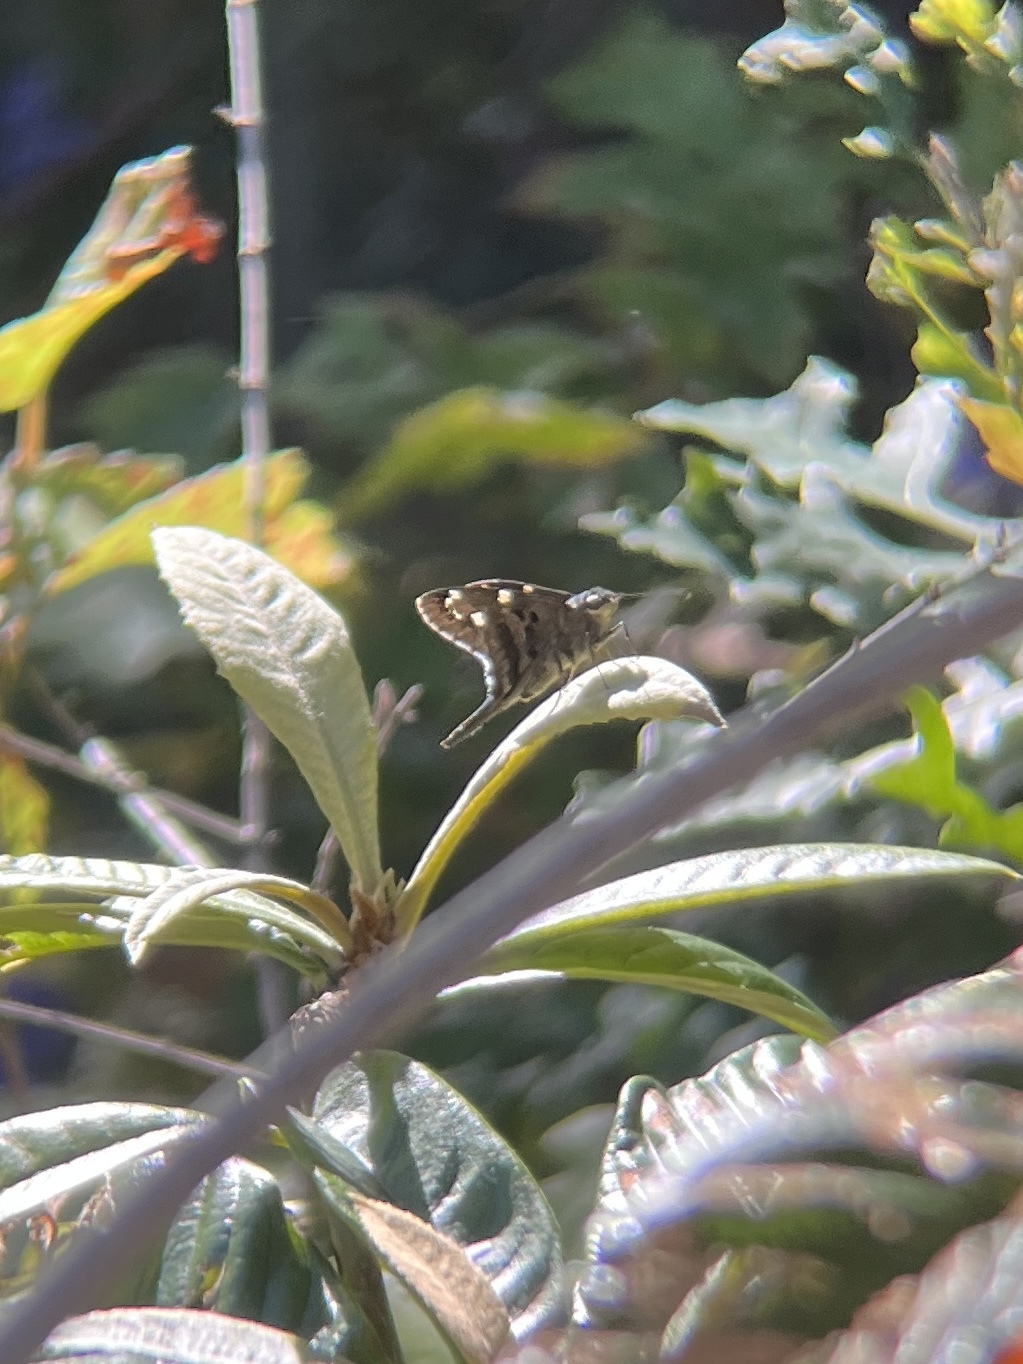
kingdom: Animalia
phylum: Arthropoda
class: Insecta
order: Lepidoptera
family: Hesperiidae
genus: Urbanus
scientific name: Urbanus proteus
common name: Long-tailed skipper
